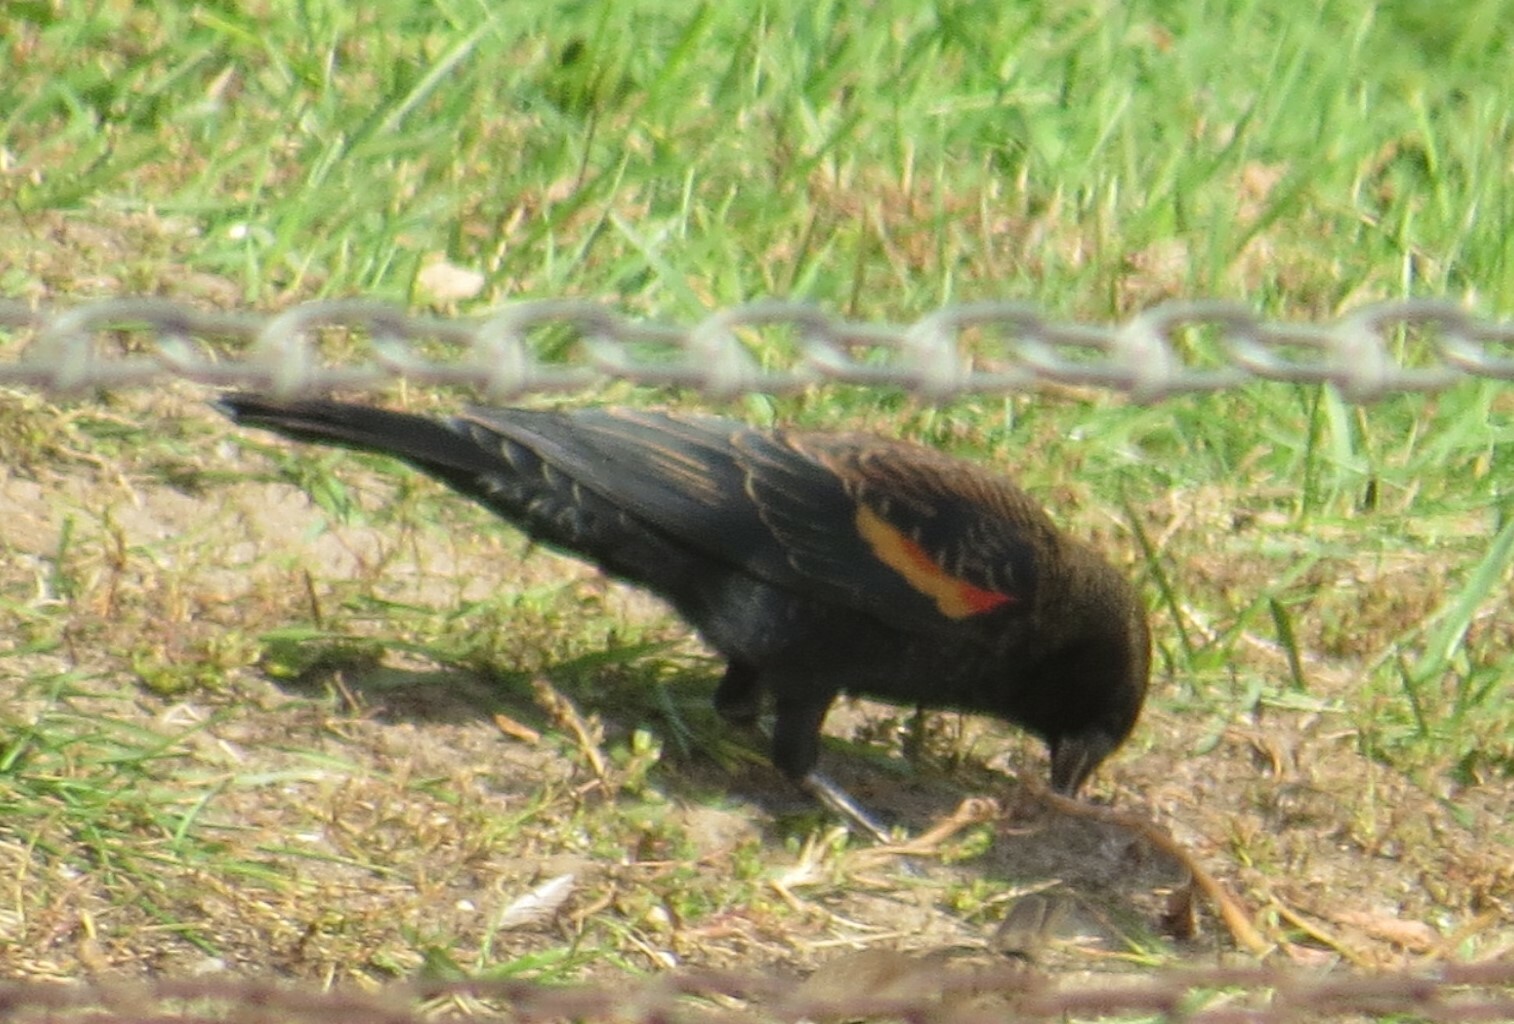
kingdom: Animalia
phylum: Chordata
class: Aves
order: Passeriformes
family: Icteridae
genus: Agelaius
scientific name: Agelaius phoeniceus
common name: Red-winged blackbird
